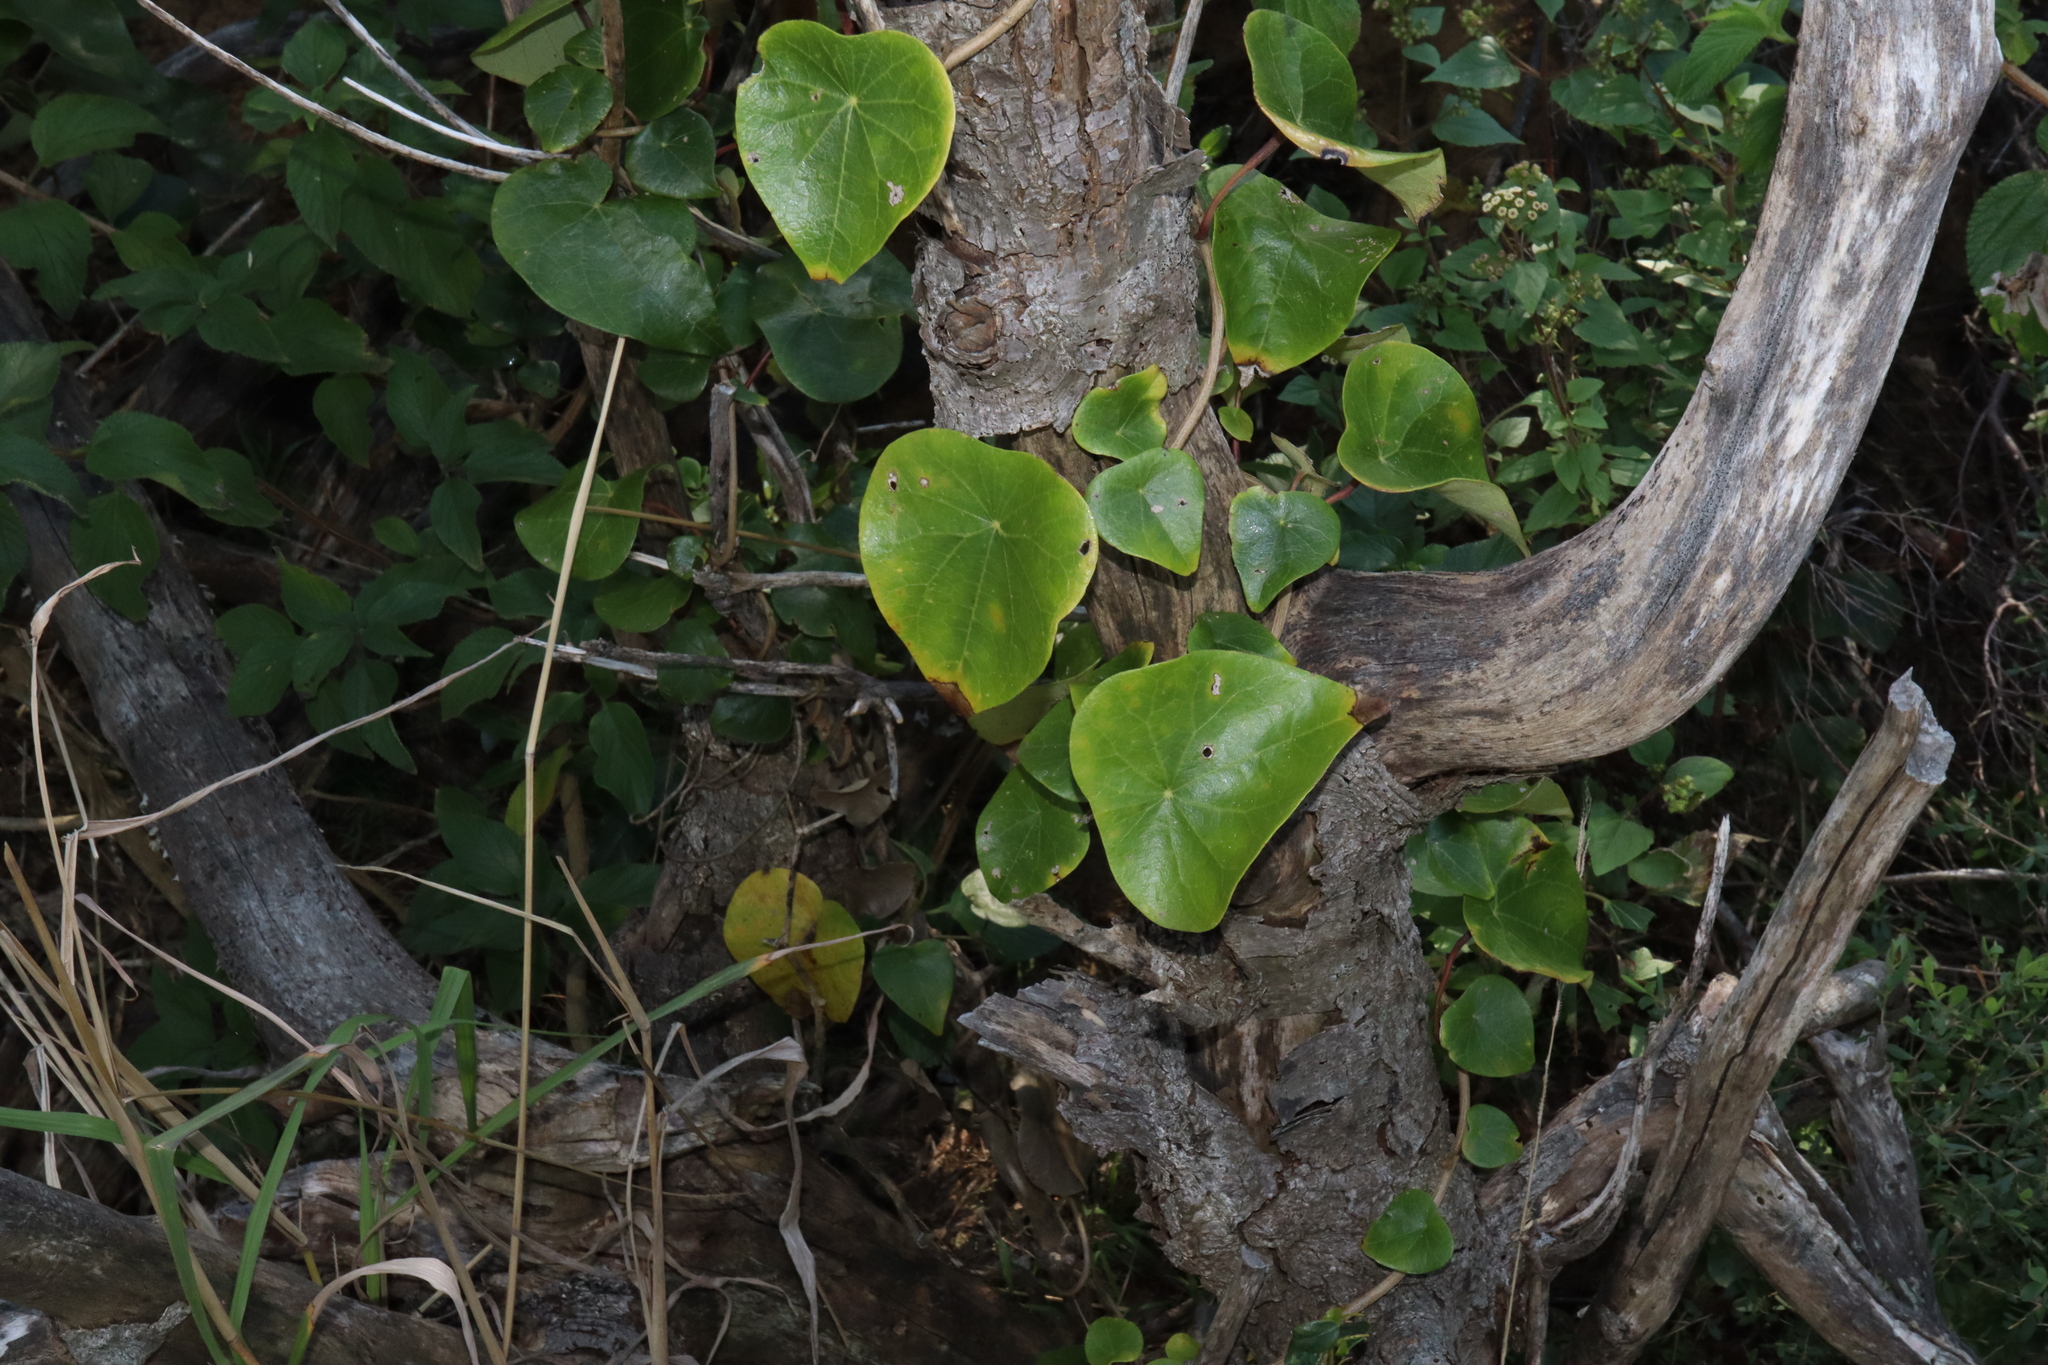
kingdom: Plantae
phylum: Tracheophyta
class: Magnoliopsida
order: Ranunculales
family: Menispermaceae
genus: Stephania
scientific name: Stephania japonica
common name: Snake vine
